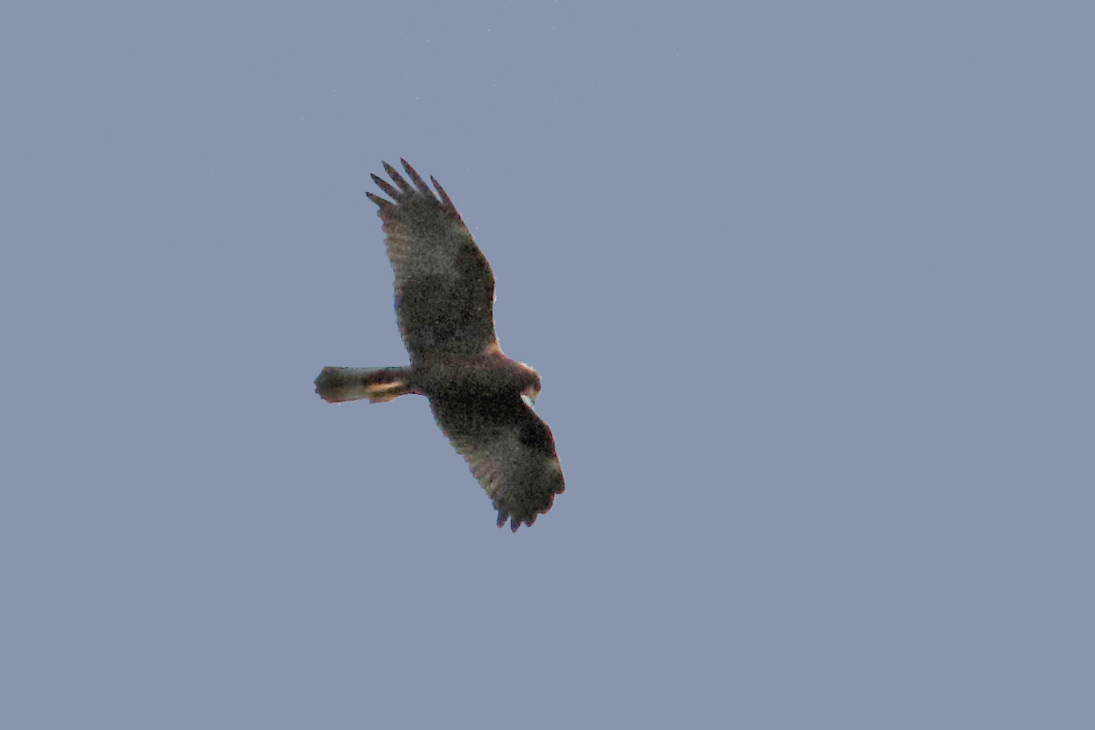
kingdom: Animalia
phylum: Chordata
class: Aves
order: Accipitriformes
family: Accipitridae
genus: Circus
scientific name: Circus aeruginosus
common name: Western marsh harrier
